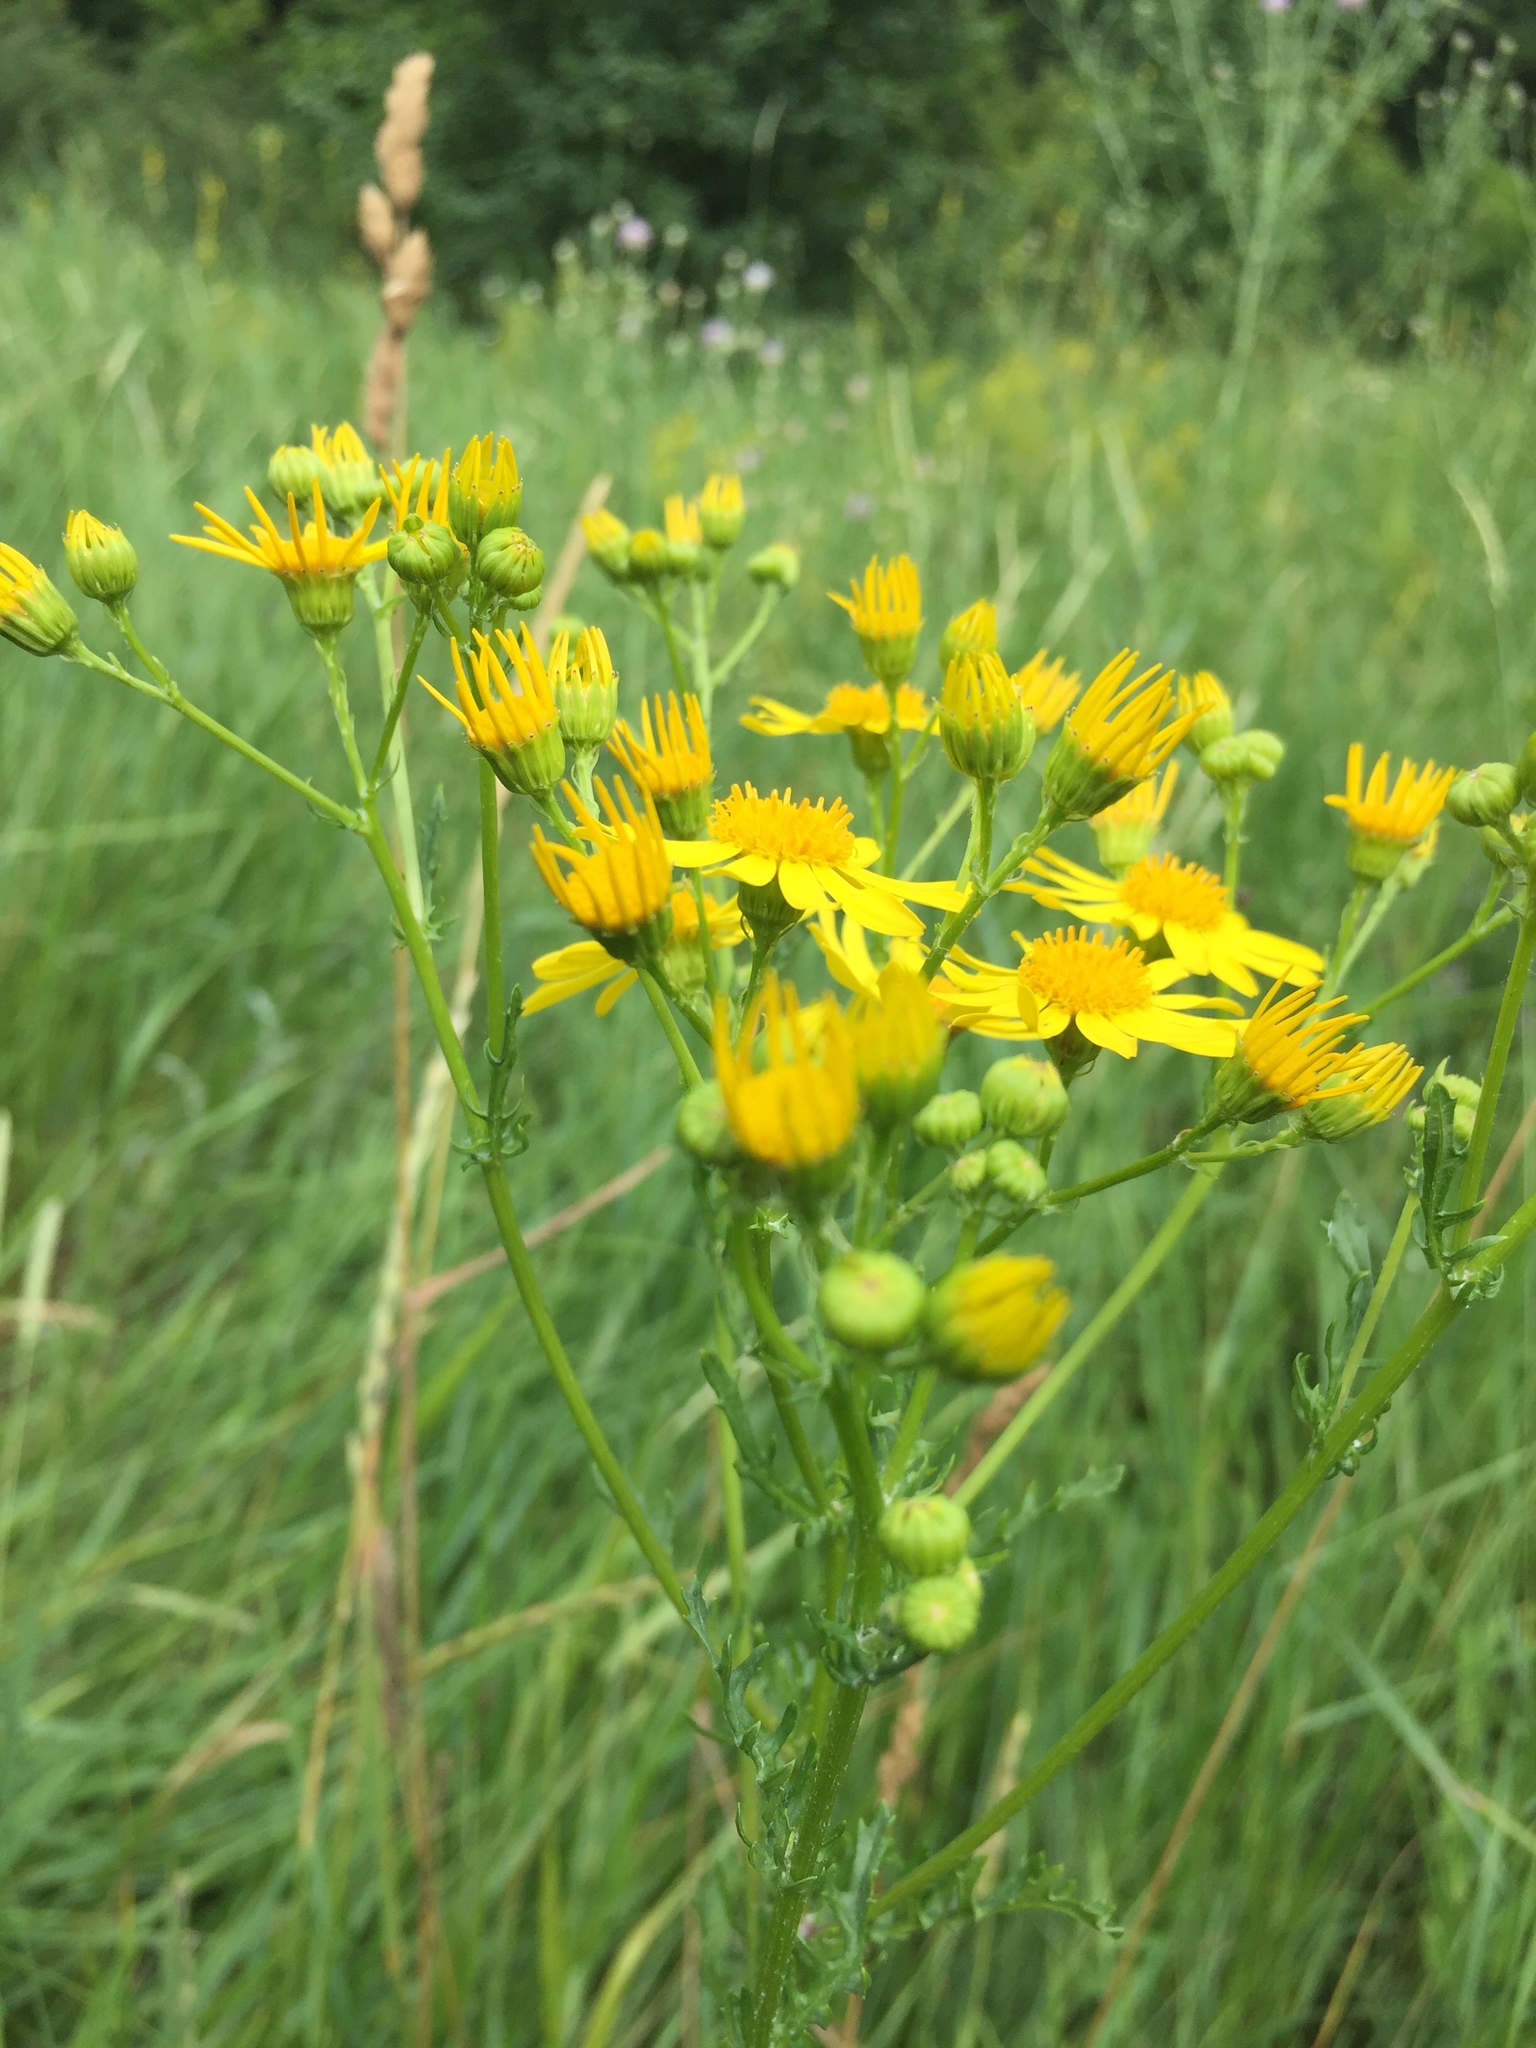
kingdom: Plantae
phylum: Tracheophyta
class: Magnoliopsida
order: Asterales
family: Asteraceae
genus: Jacobaea
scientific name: Jacobaea vulgaris
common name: Stinking willie
